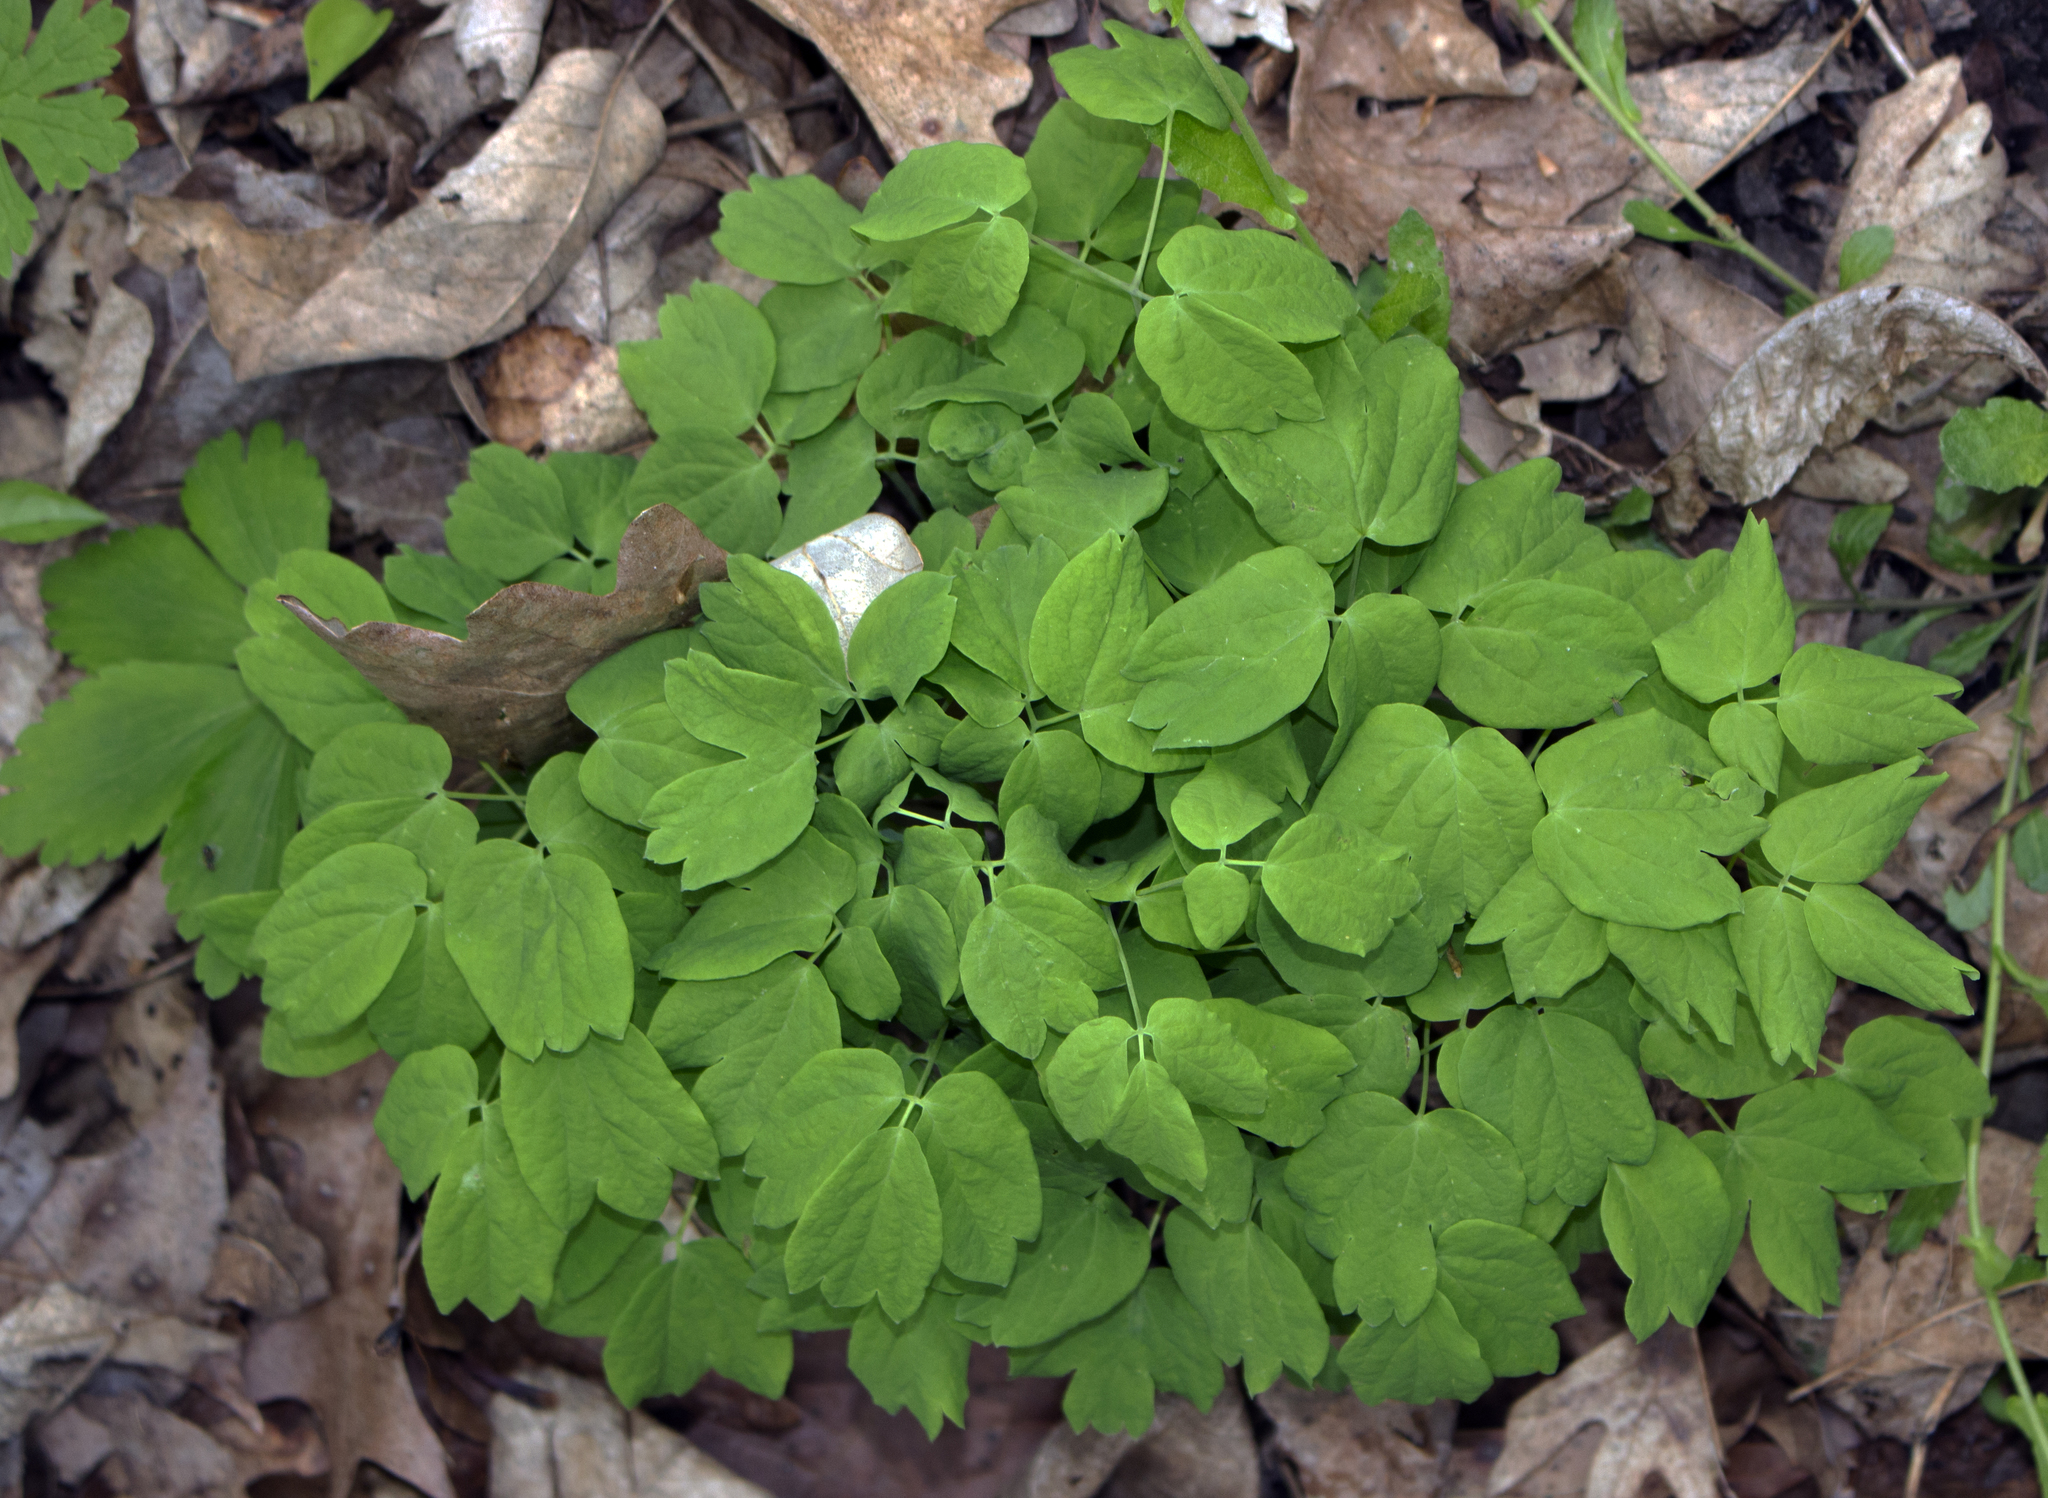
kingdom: Plantae
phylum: Tracheophyta
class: Magnoliopsida
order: Ranunculales
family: Berberidaceae
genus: Caulophyllum
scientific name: Caulophyllum thalictroides
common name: Blue cohosh
